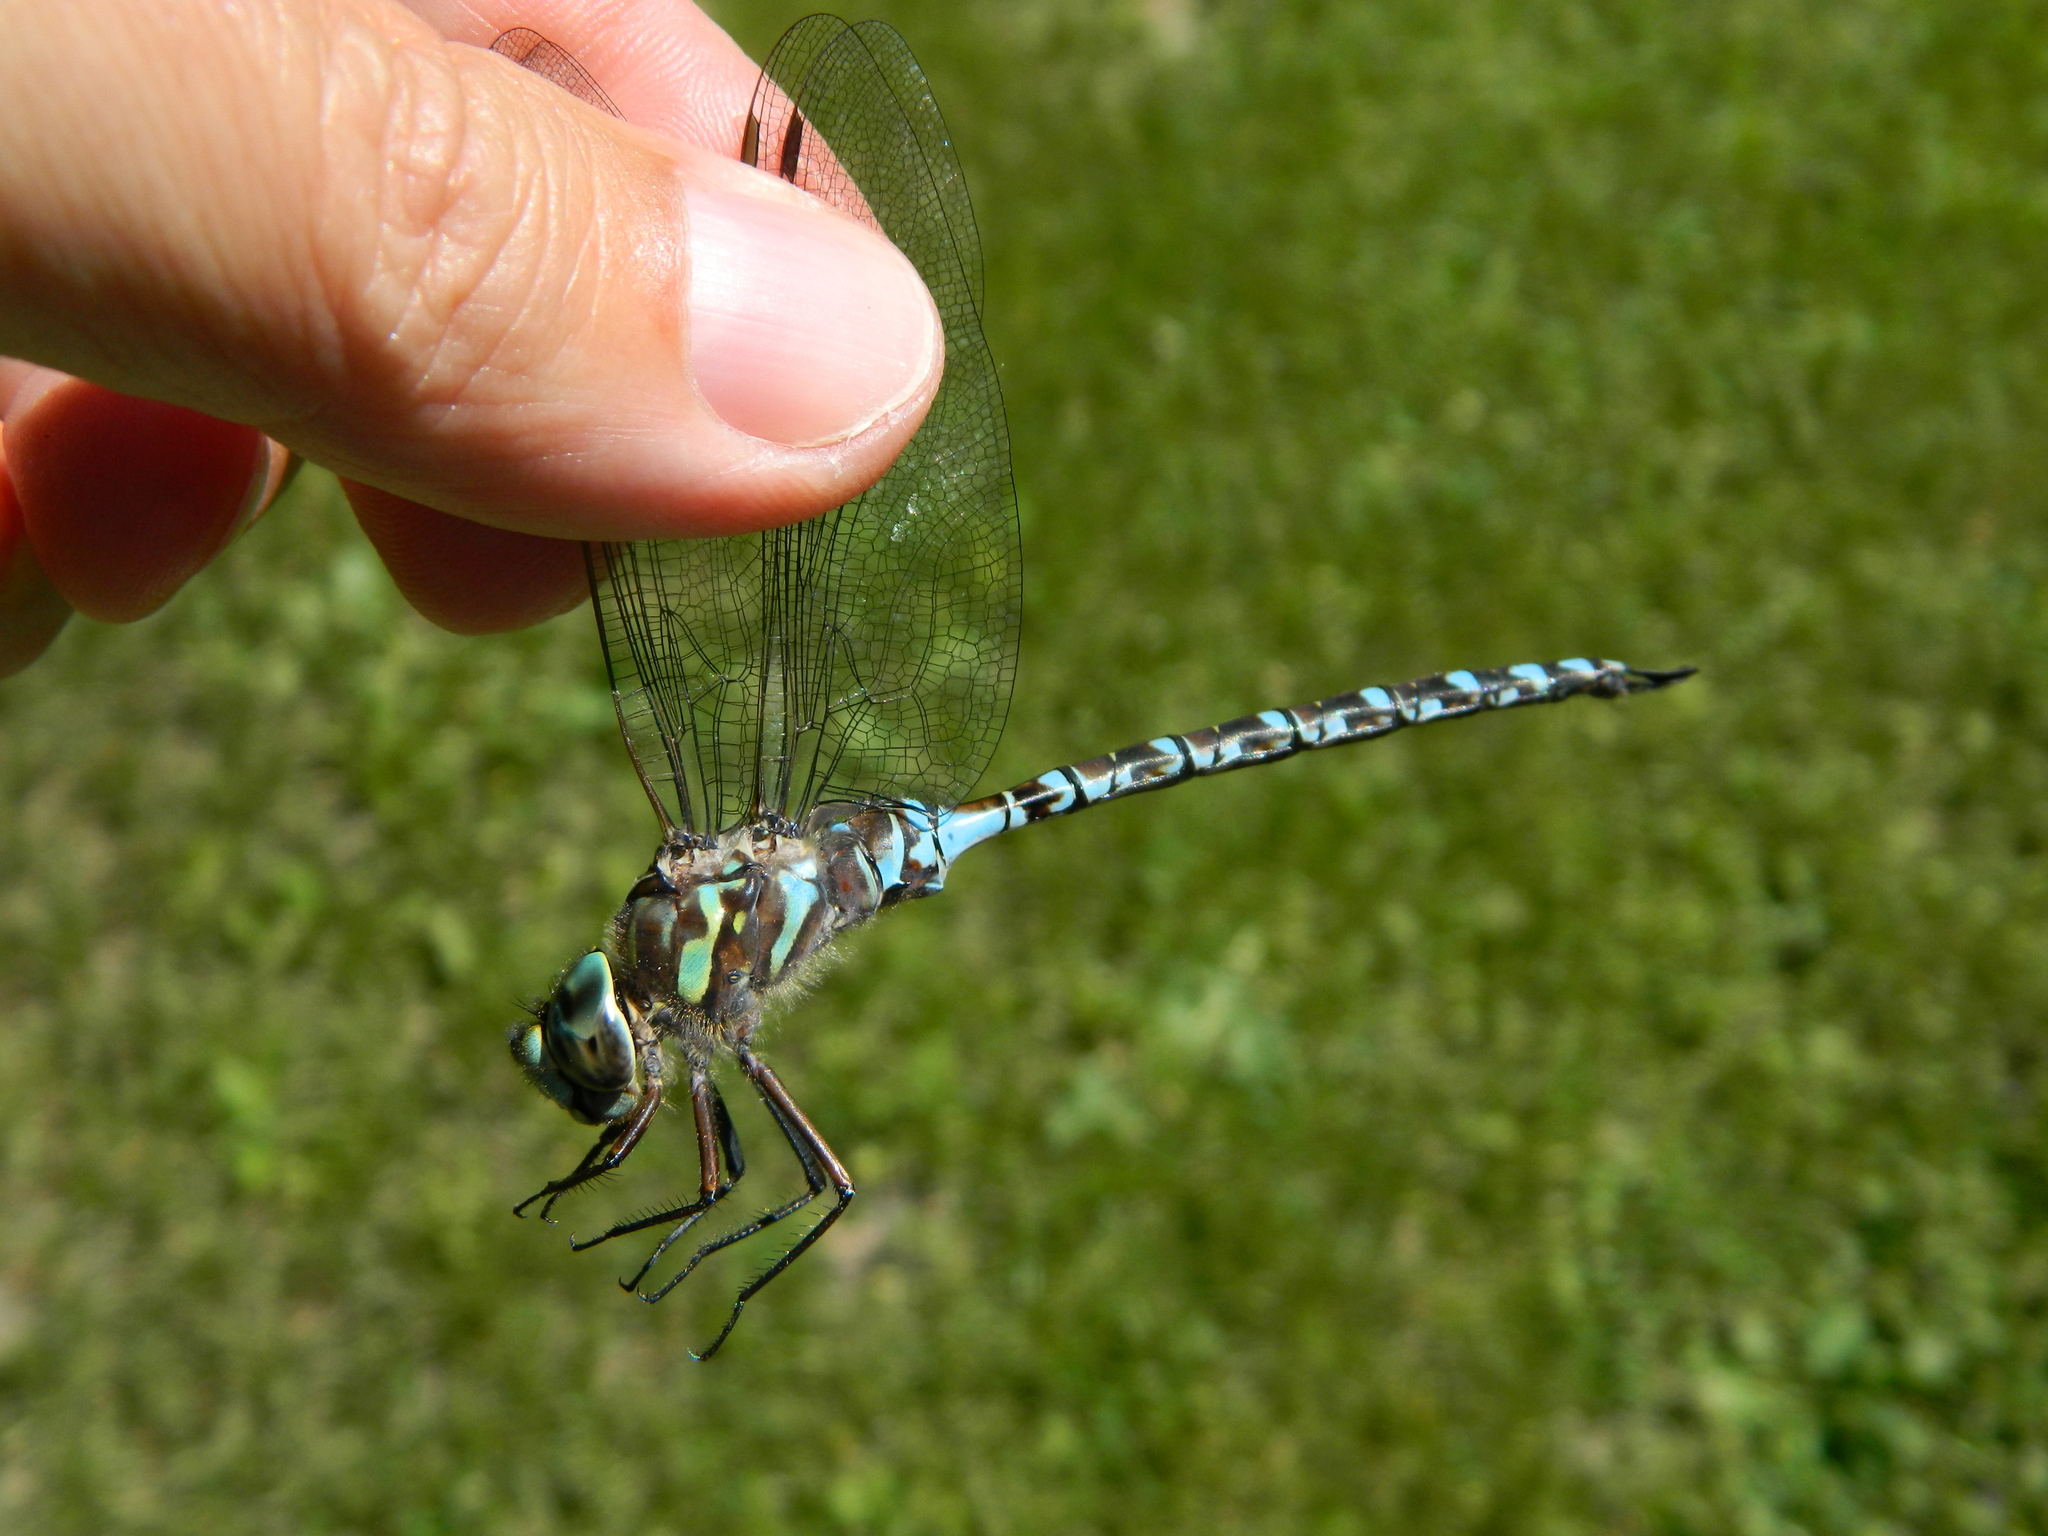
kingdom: Animalia
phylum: Arthropoda
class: Insecta
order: Odonata
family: Aeshnidae
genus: Aeshna
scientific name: Aeshna canadensis
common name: Canada darner
